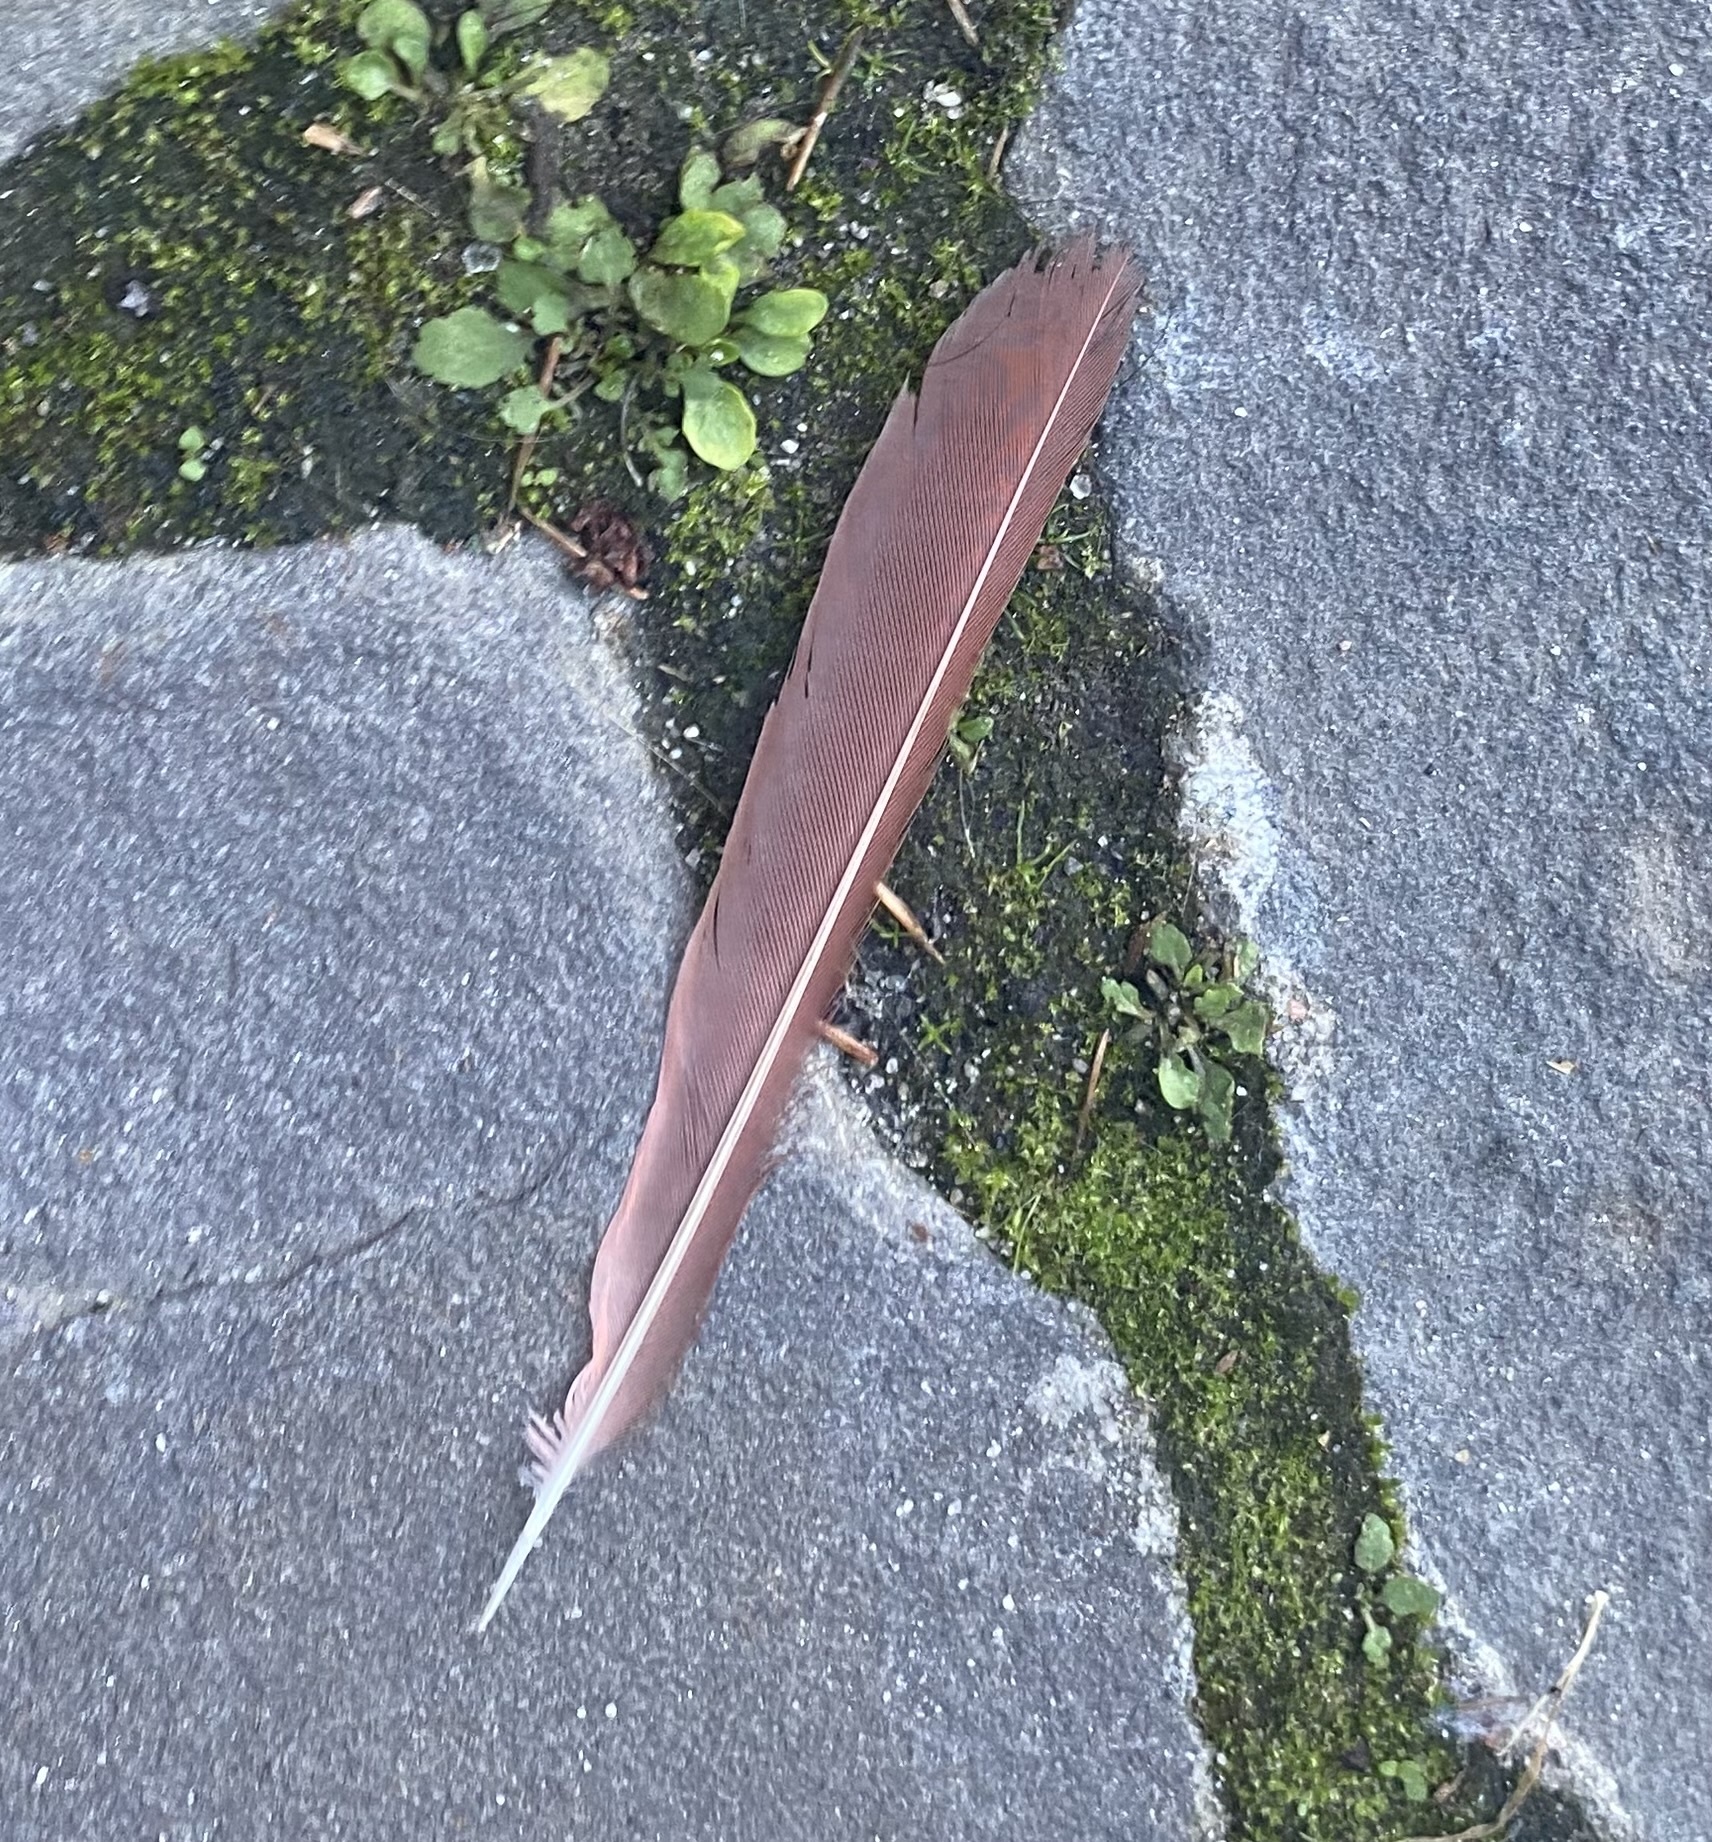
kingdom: Animalia
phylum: Chordata
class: Aves
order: Passeriformes
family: Cardinalidae
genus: Cardinalis
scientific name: Cardinalis cardinalis
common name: Northern cardinal
